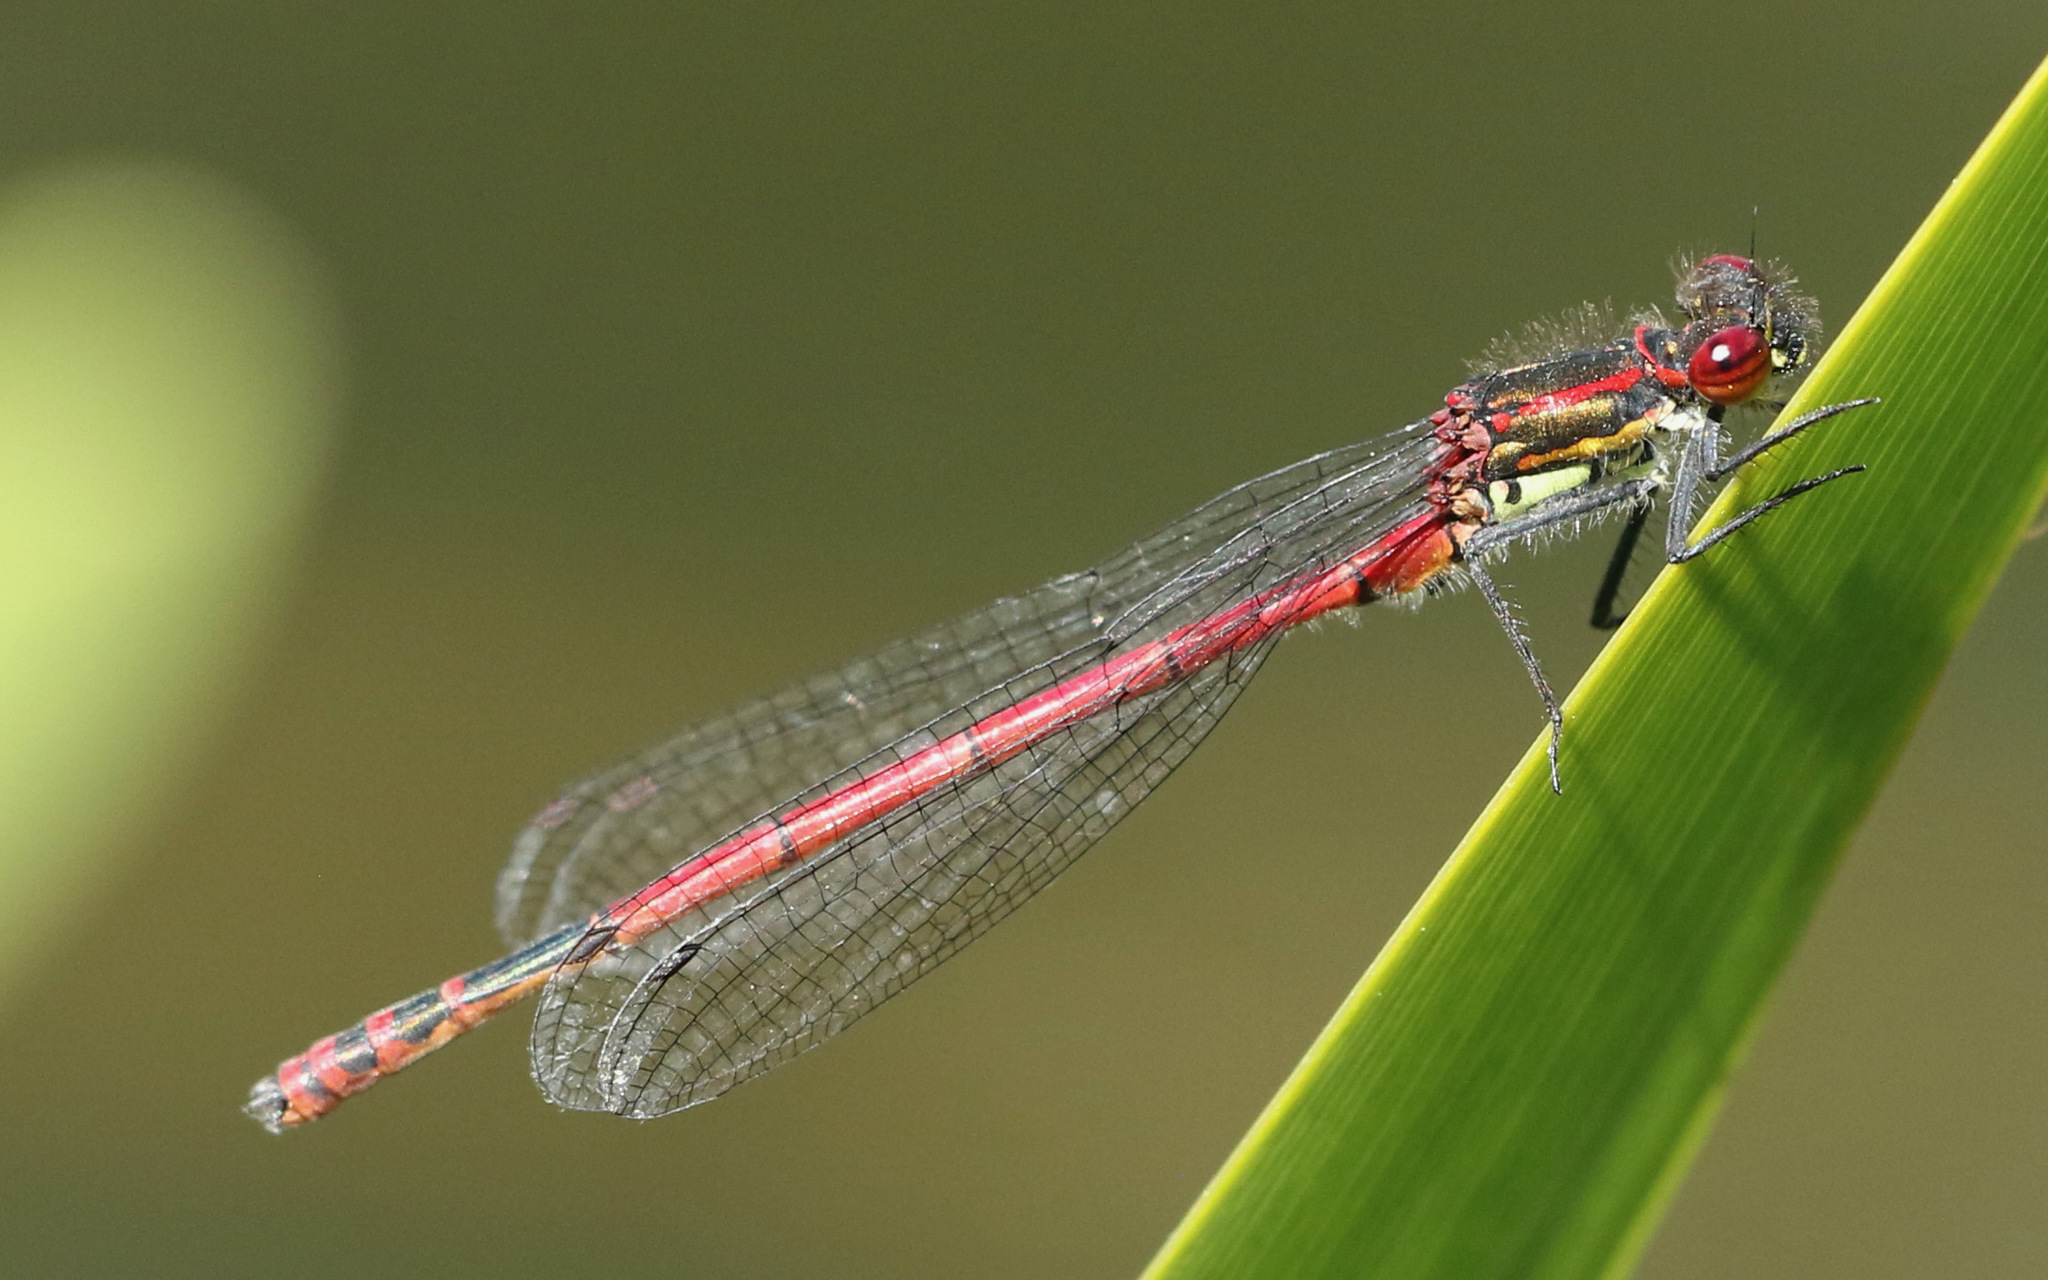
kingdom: Animalia
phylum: Arthropoda
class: Insecta
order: Odonata
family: Coenagrionidae
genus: Pyrrhosoma
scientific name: Pyrrhosoma nymphula
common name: Large red damsel
